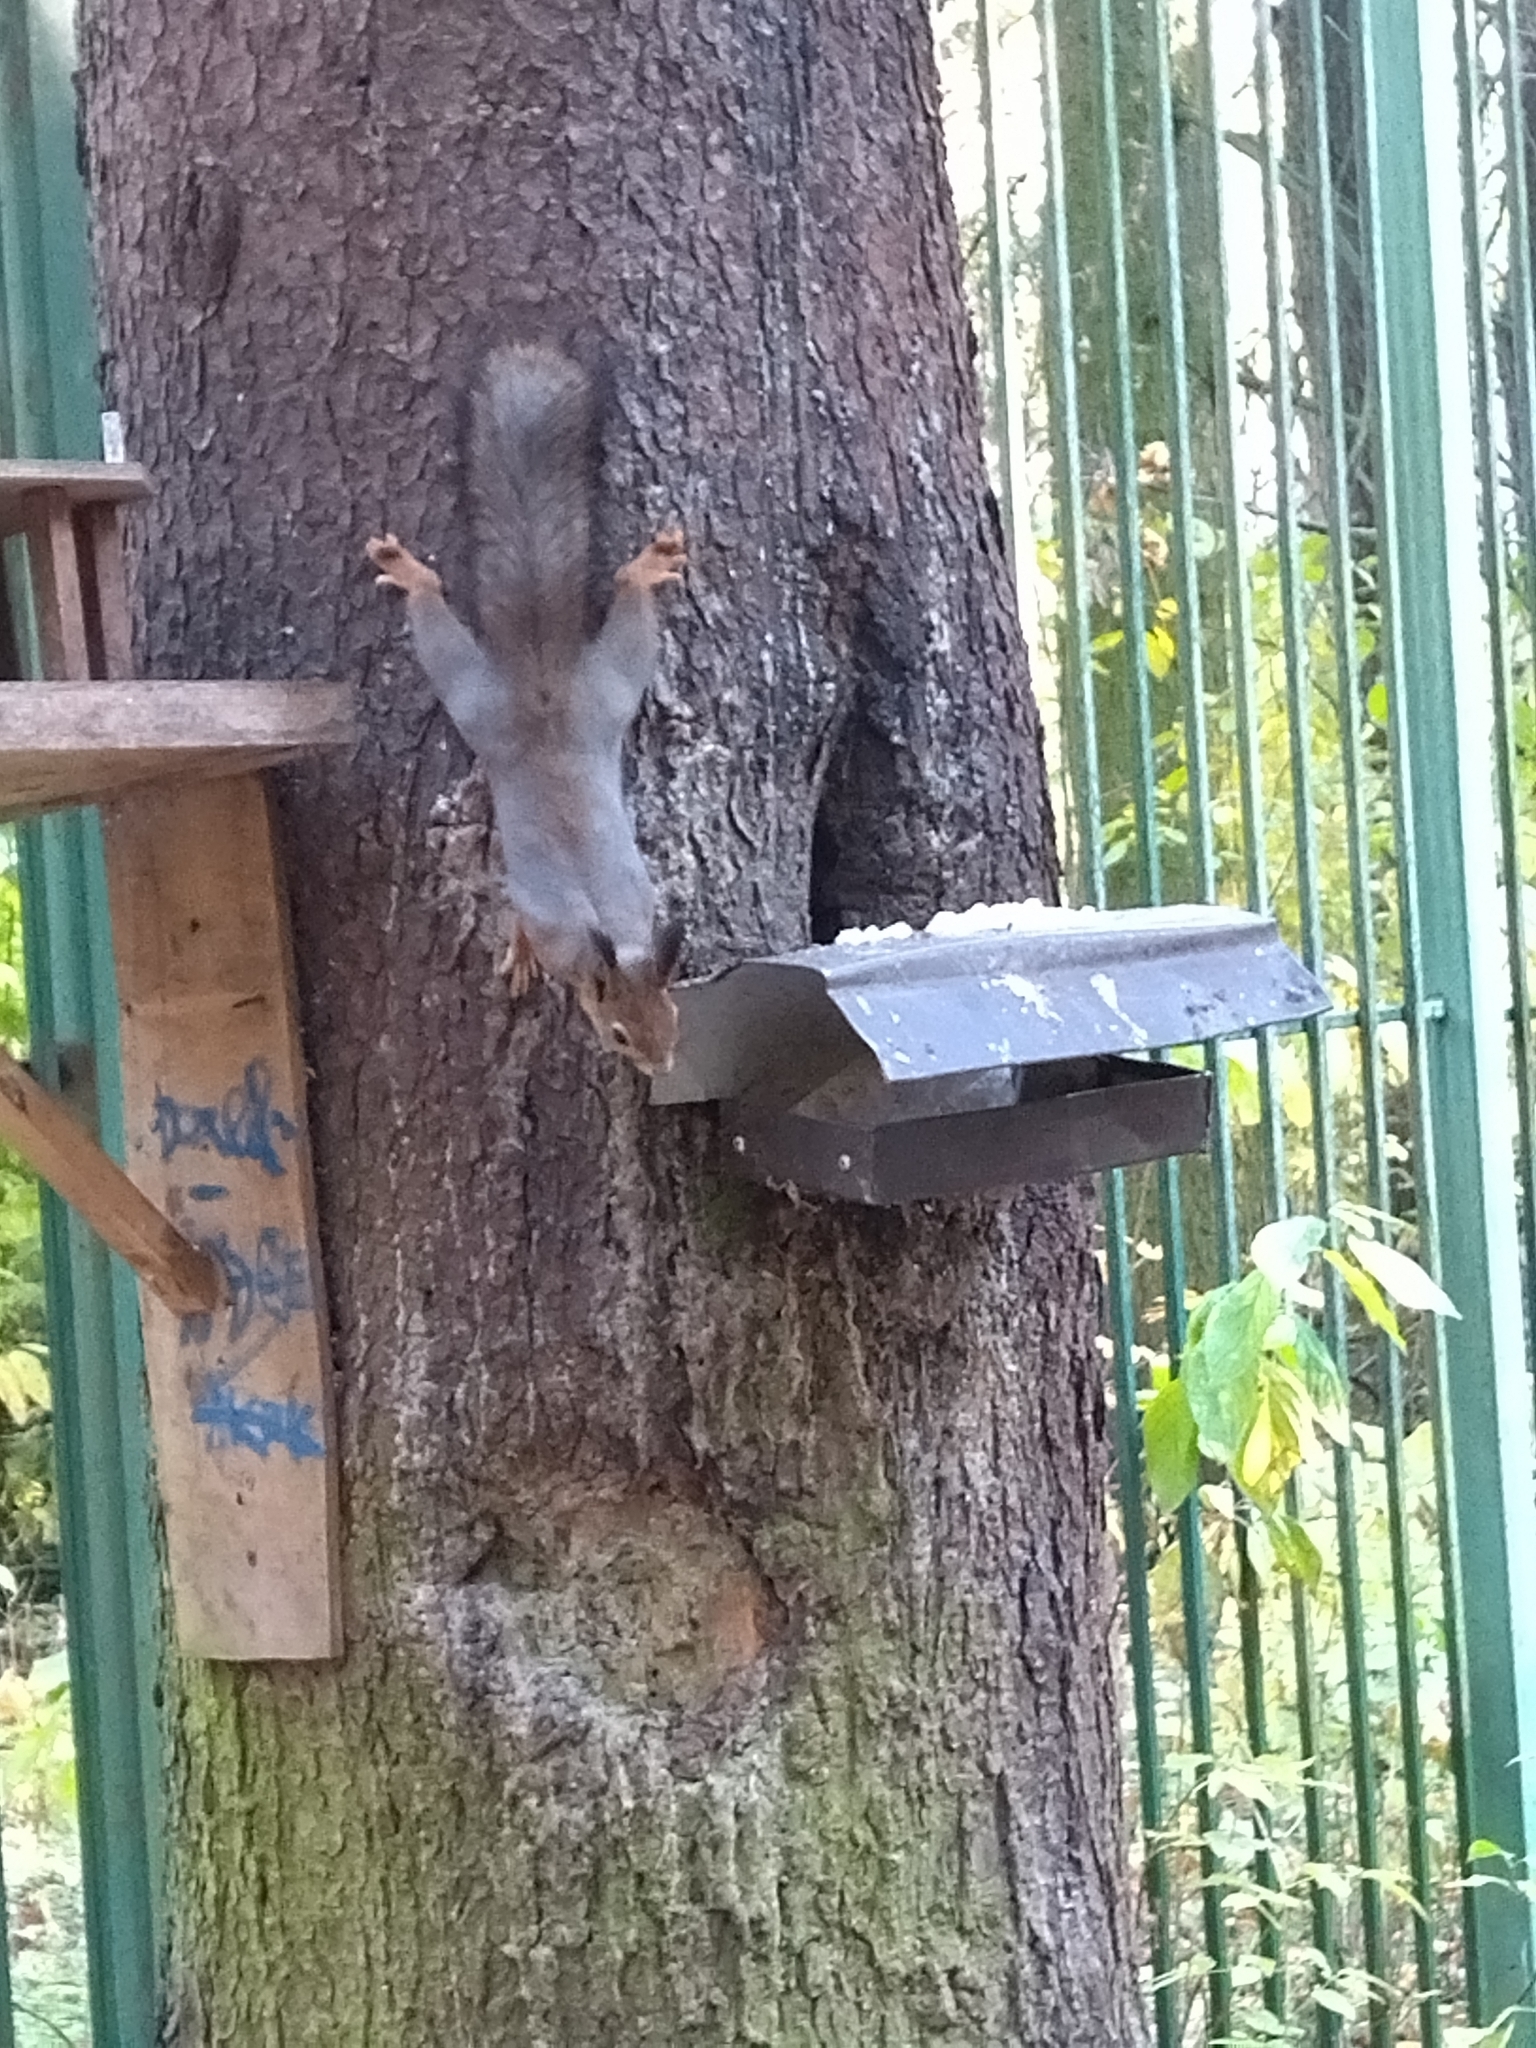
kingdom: Animalia
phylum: Chordata
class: Mammalia
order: Rodentia
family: Sciuridae
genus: Sciurus
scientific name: Sciurus vulgaris
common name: Eurasian red squirrel
